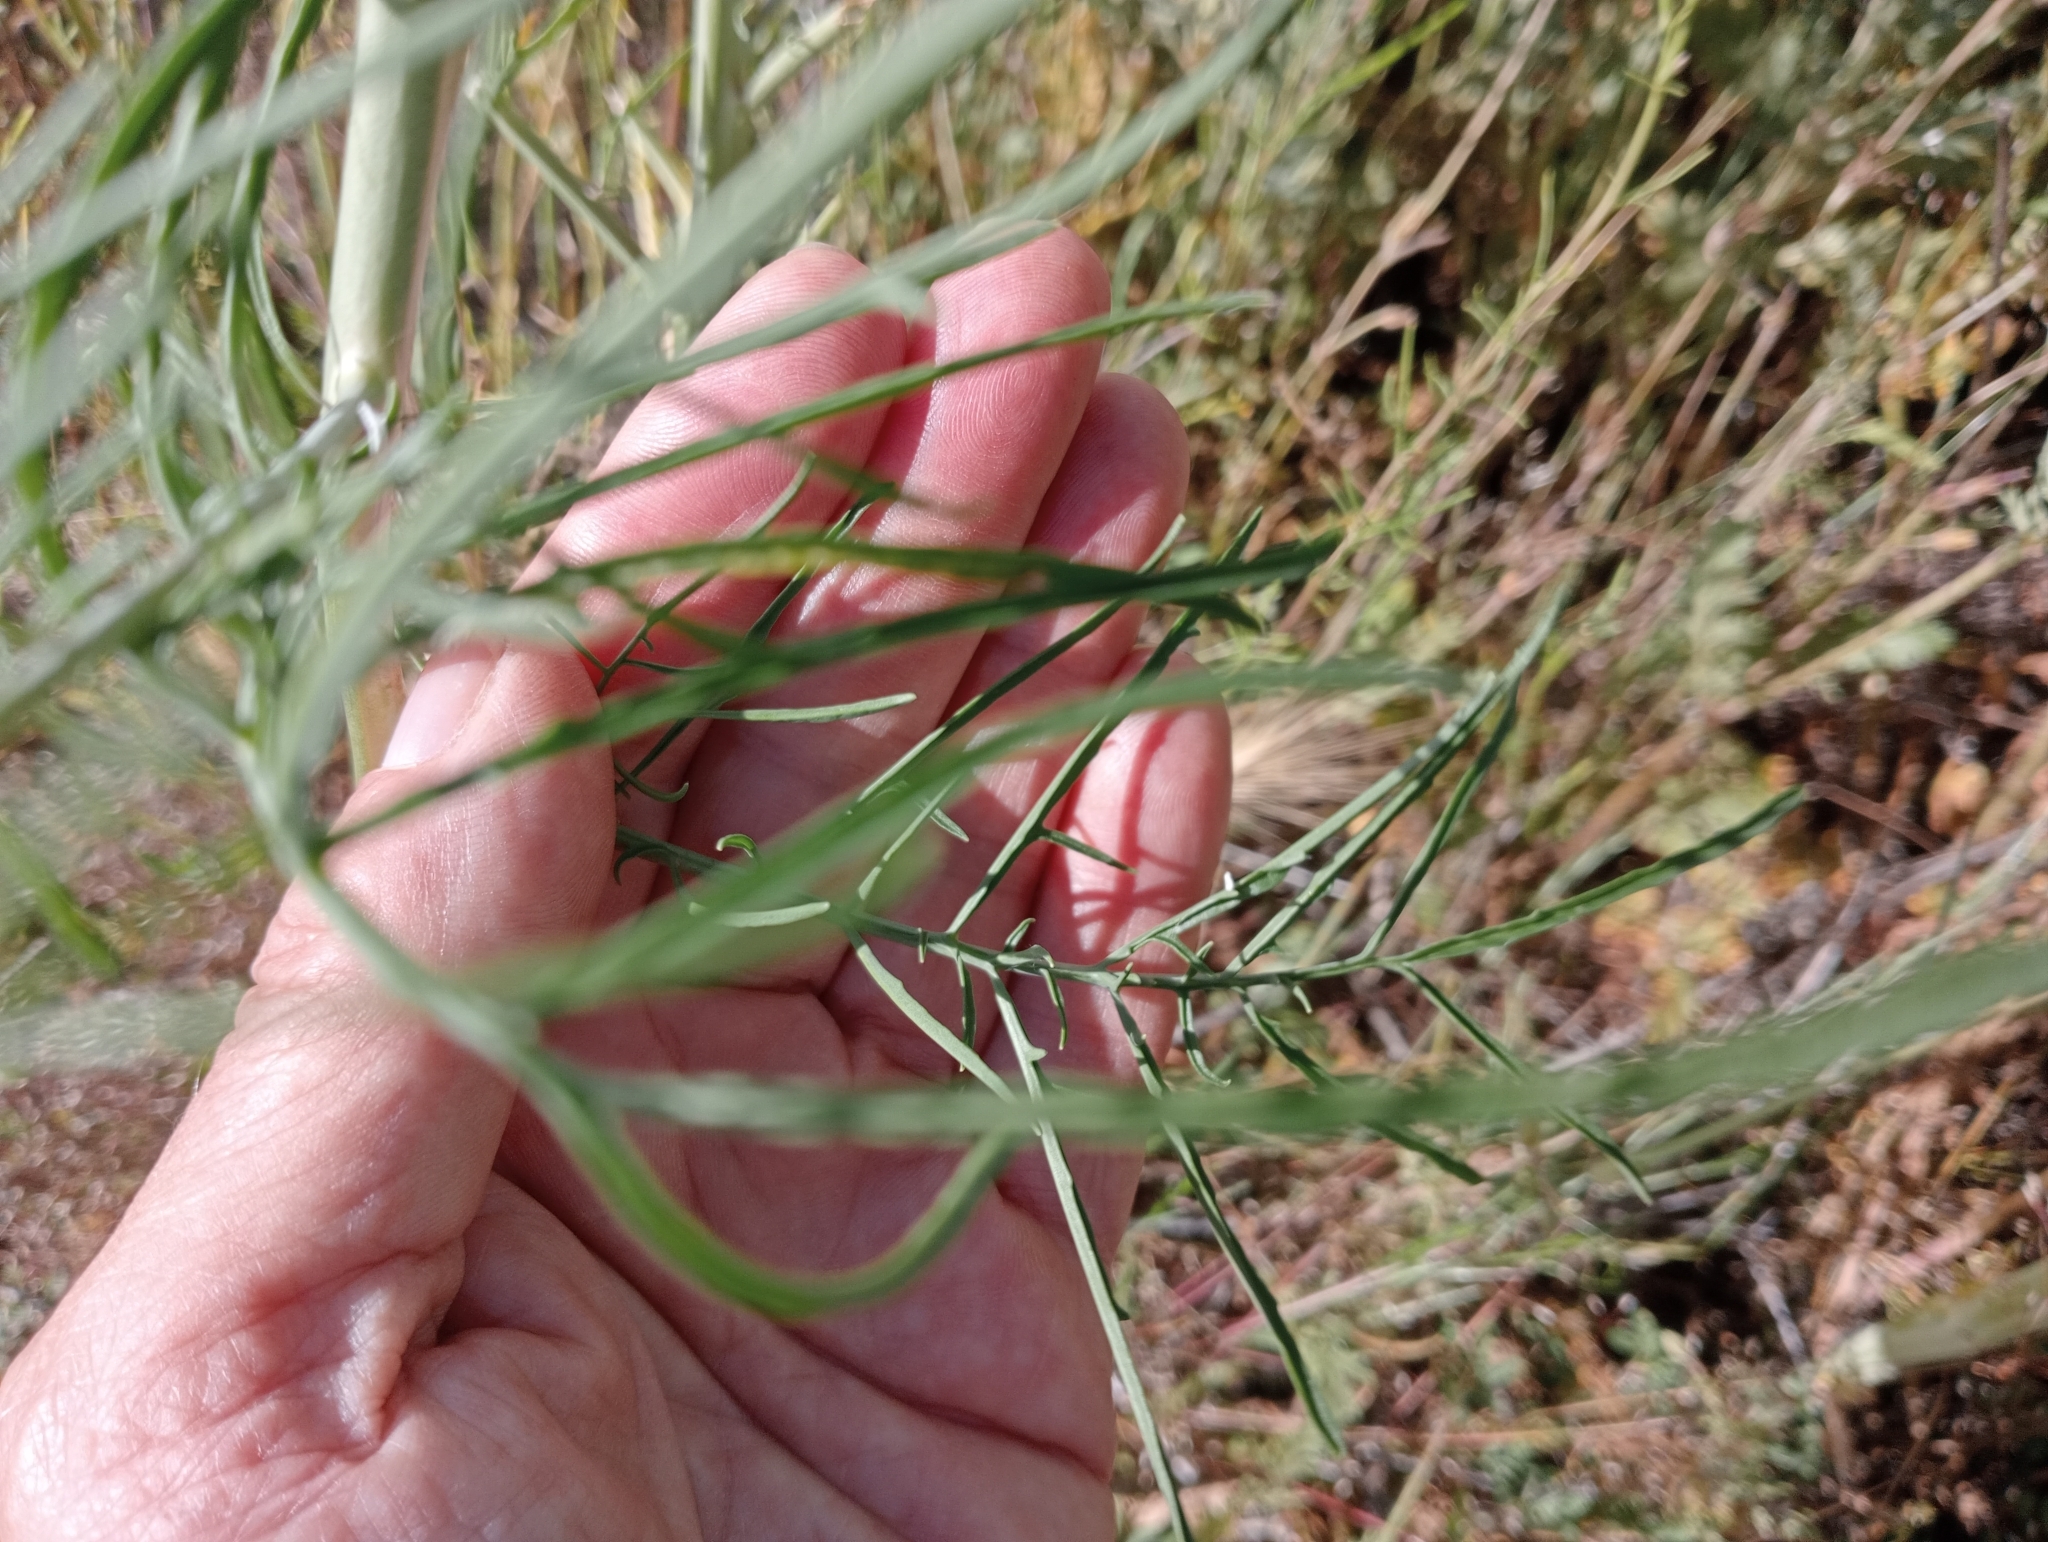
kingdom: Plantae
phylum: Tracheophyta
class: Magnoliopsida
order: Brassicales
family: Brassicaceae
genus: Sisymbrium
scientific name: Sisymbrium altissimum
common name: Tall rocket
